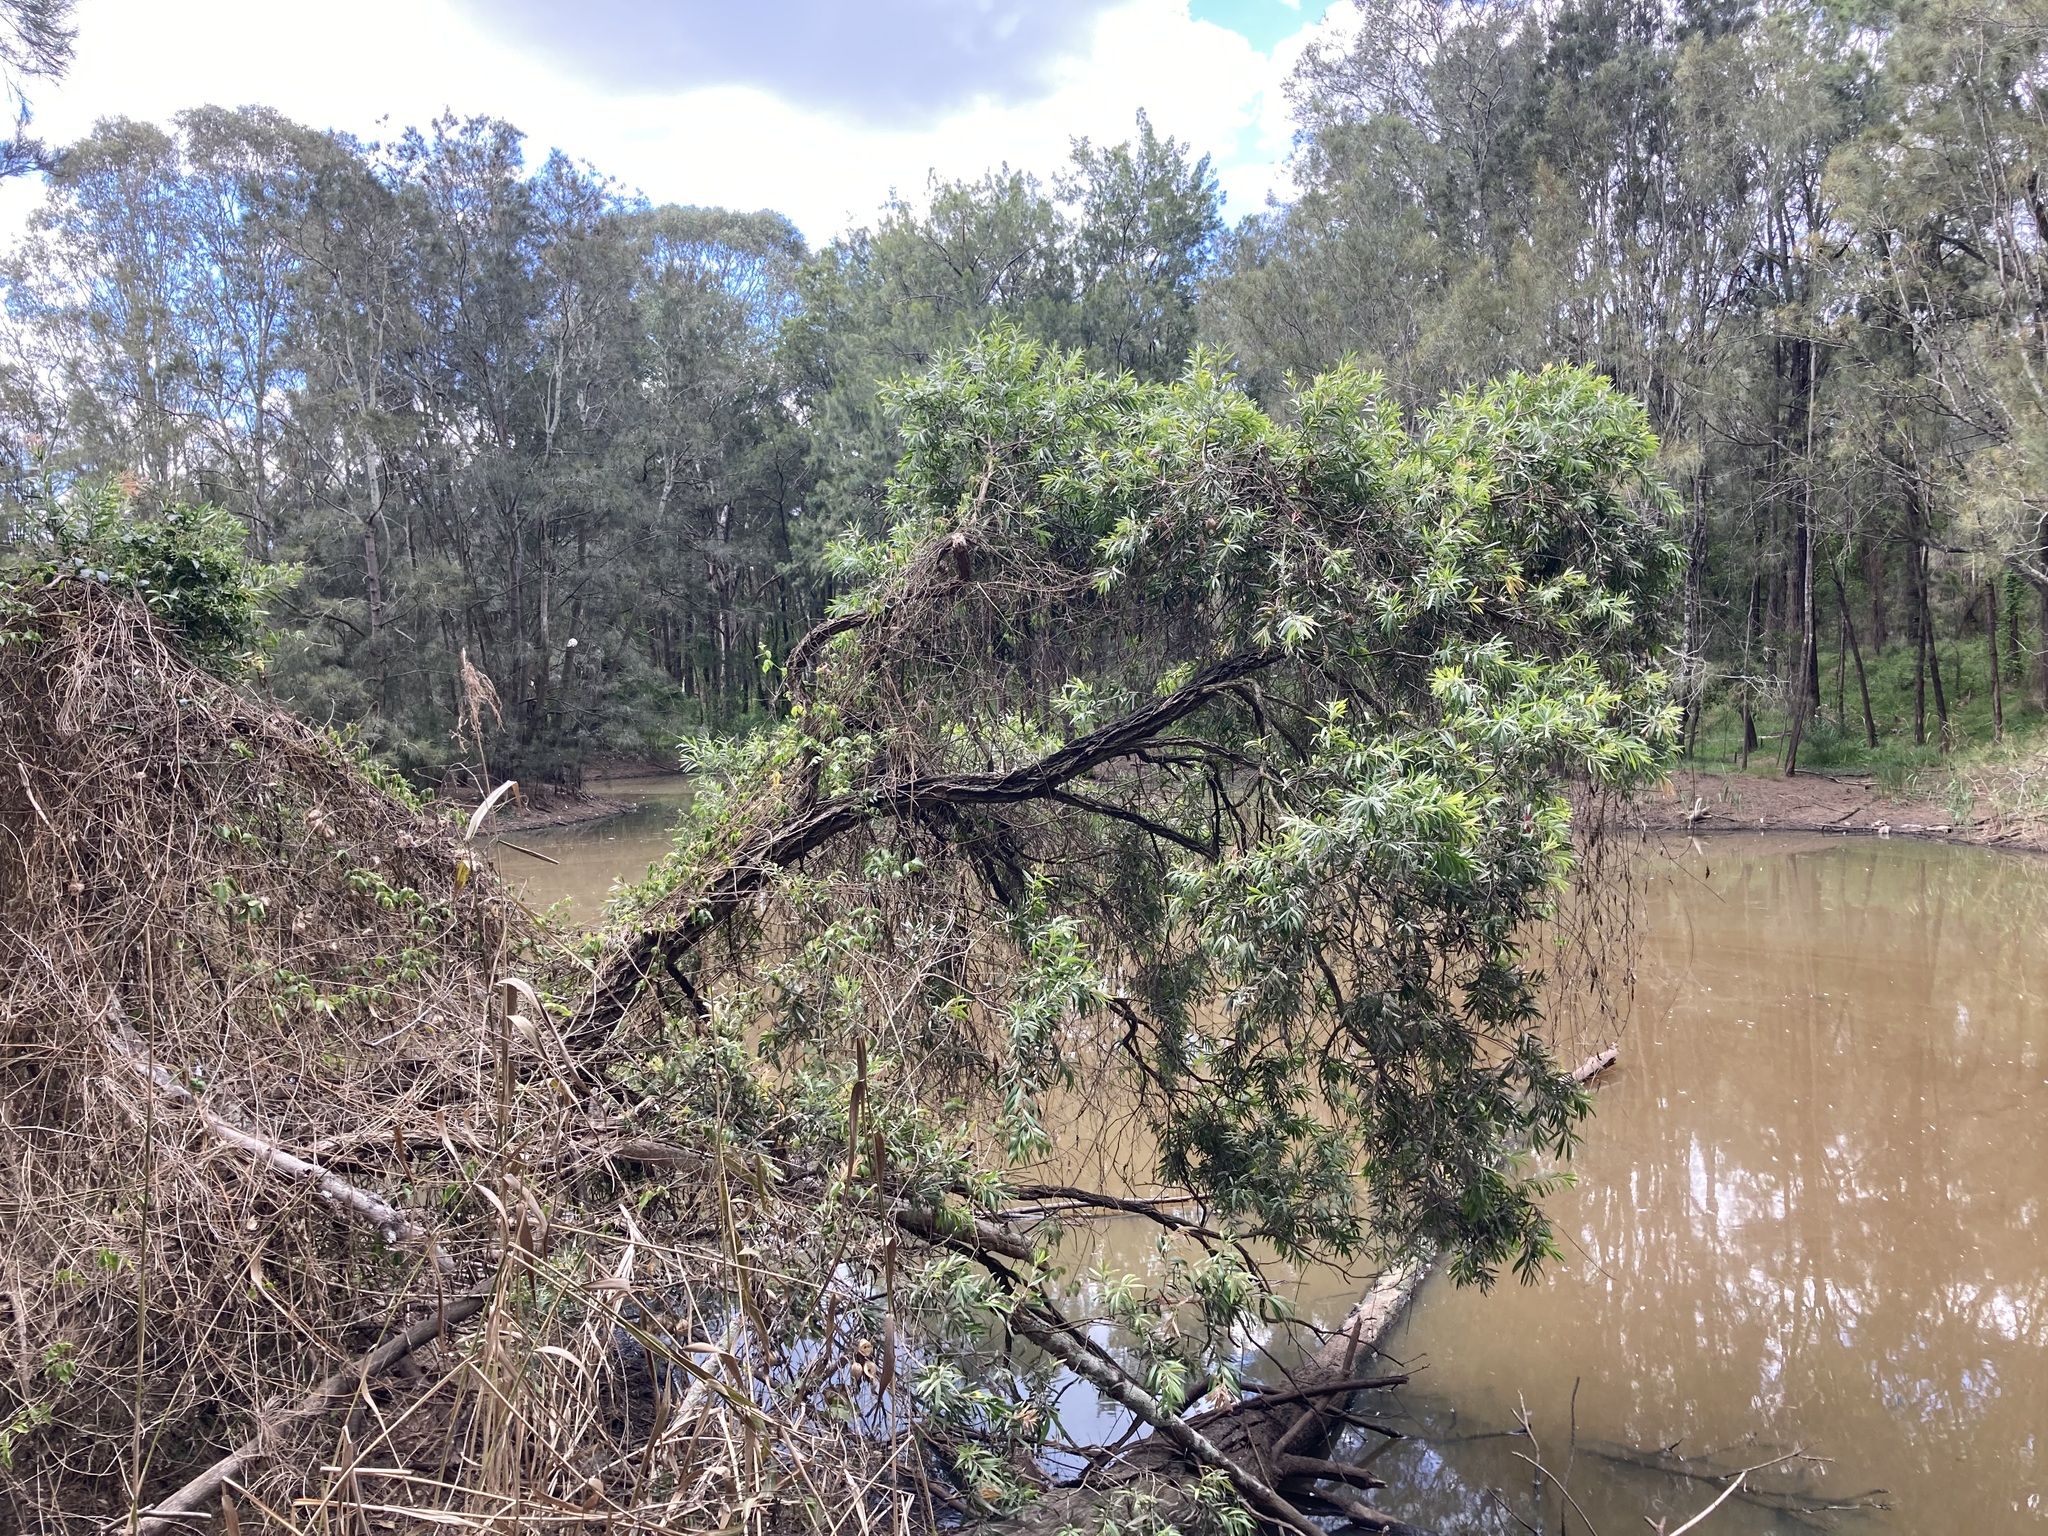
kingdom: Plantae
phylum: Tracheophyta
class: Magnoliopsida
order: Myrtales
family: Myrtaceae
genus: Callistemon
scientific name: Callistemon viminalis
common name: Drooping bottlebrush
